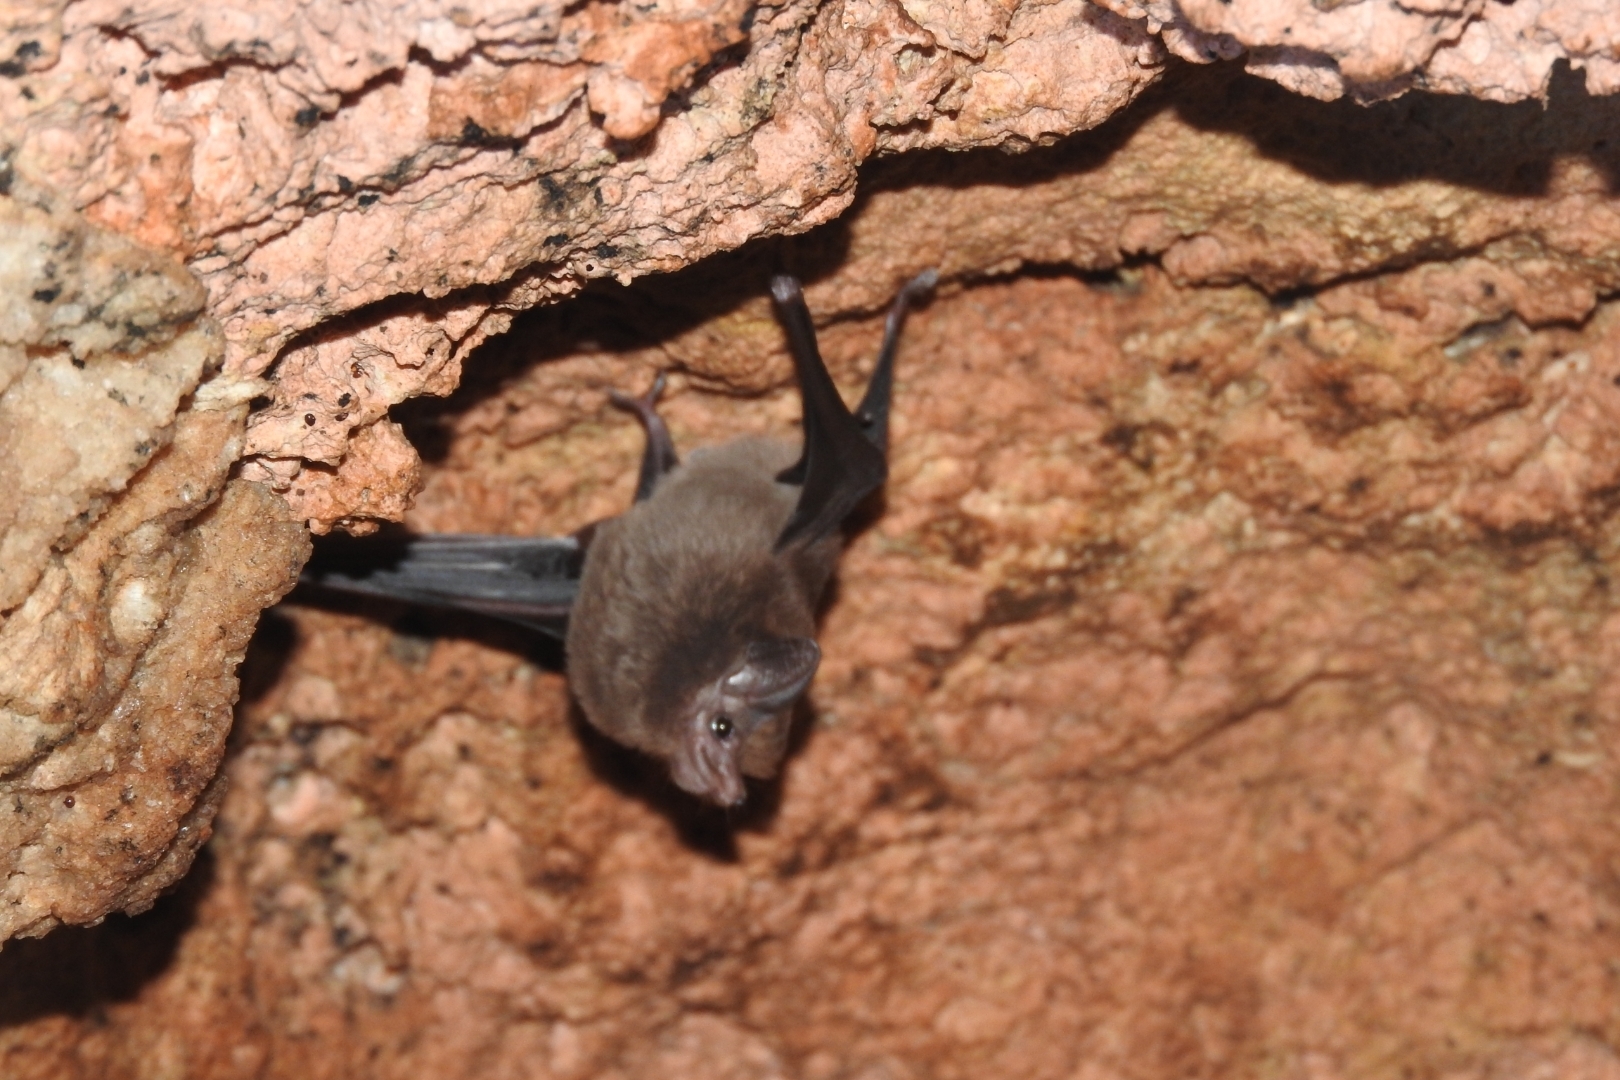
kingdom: Animalia
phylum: Chordata
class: Mammalia
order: Chiroptera
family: Emballonuridae
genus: Peropteryx
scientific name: Peropteryx macrotis
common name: Lesser dog-like bat
